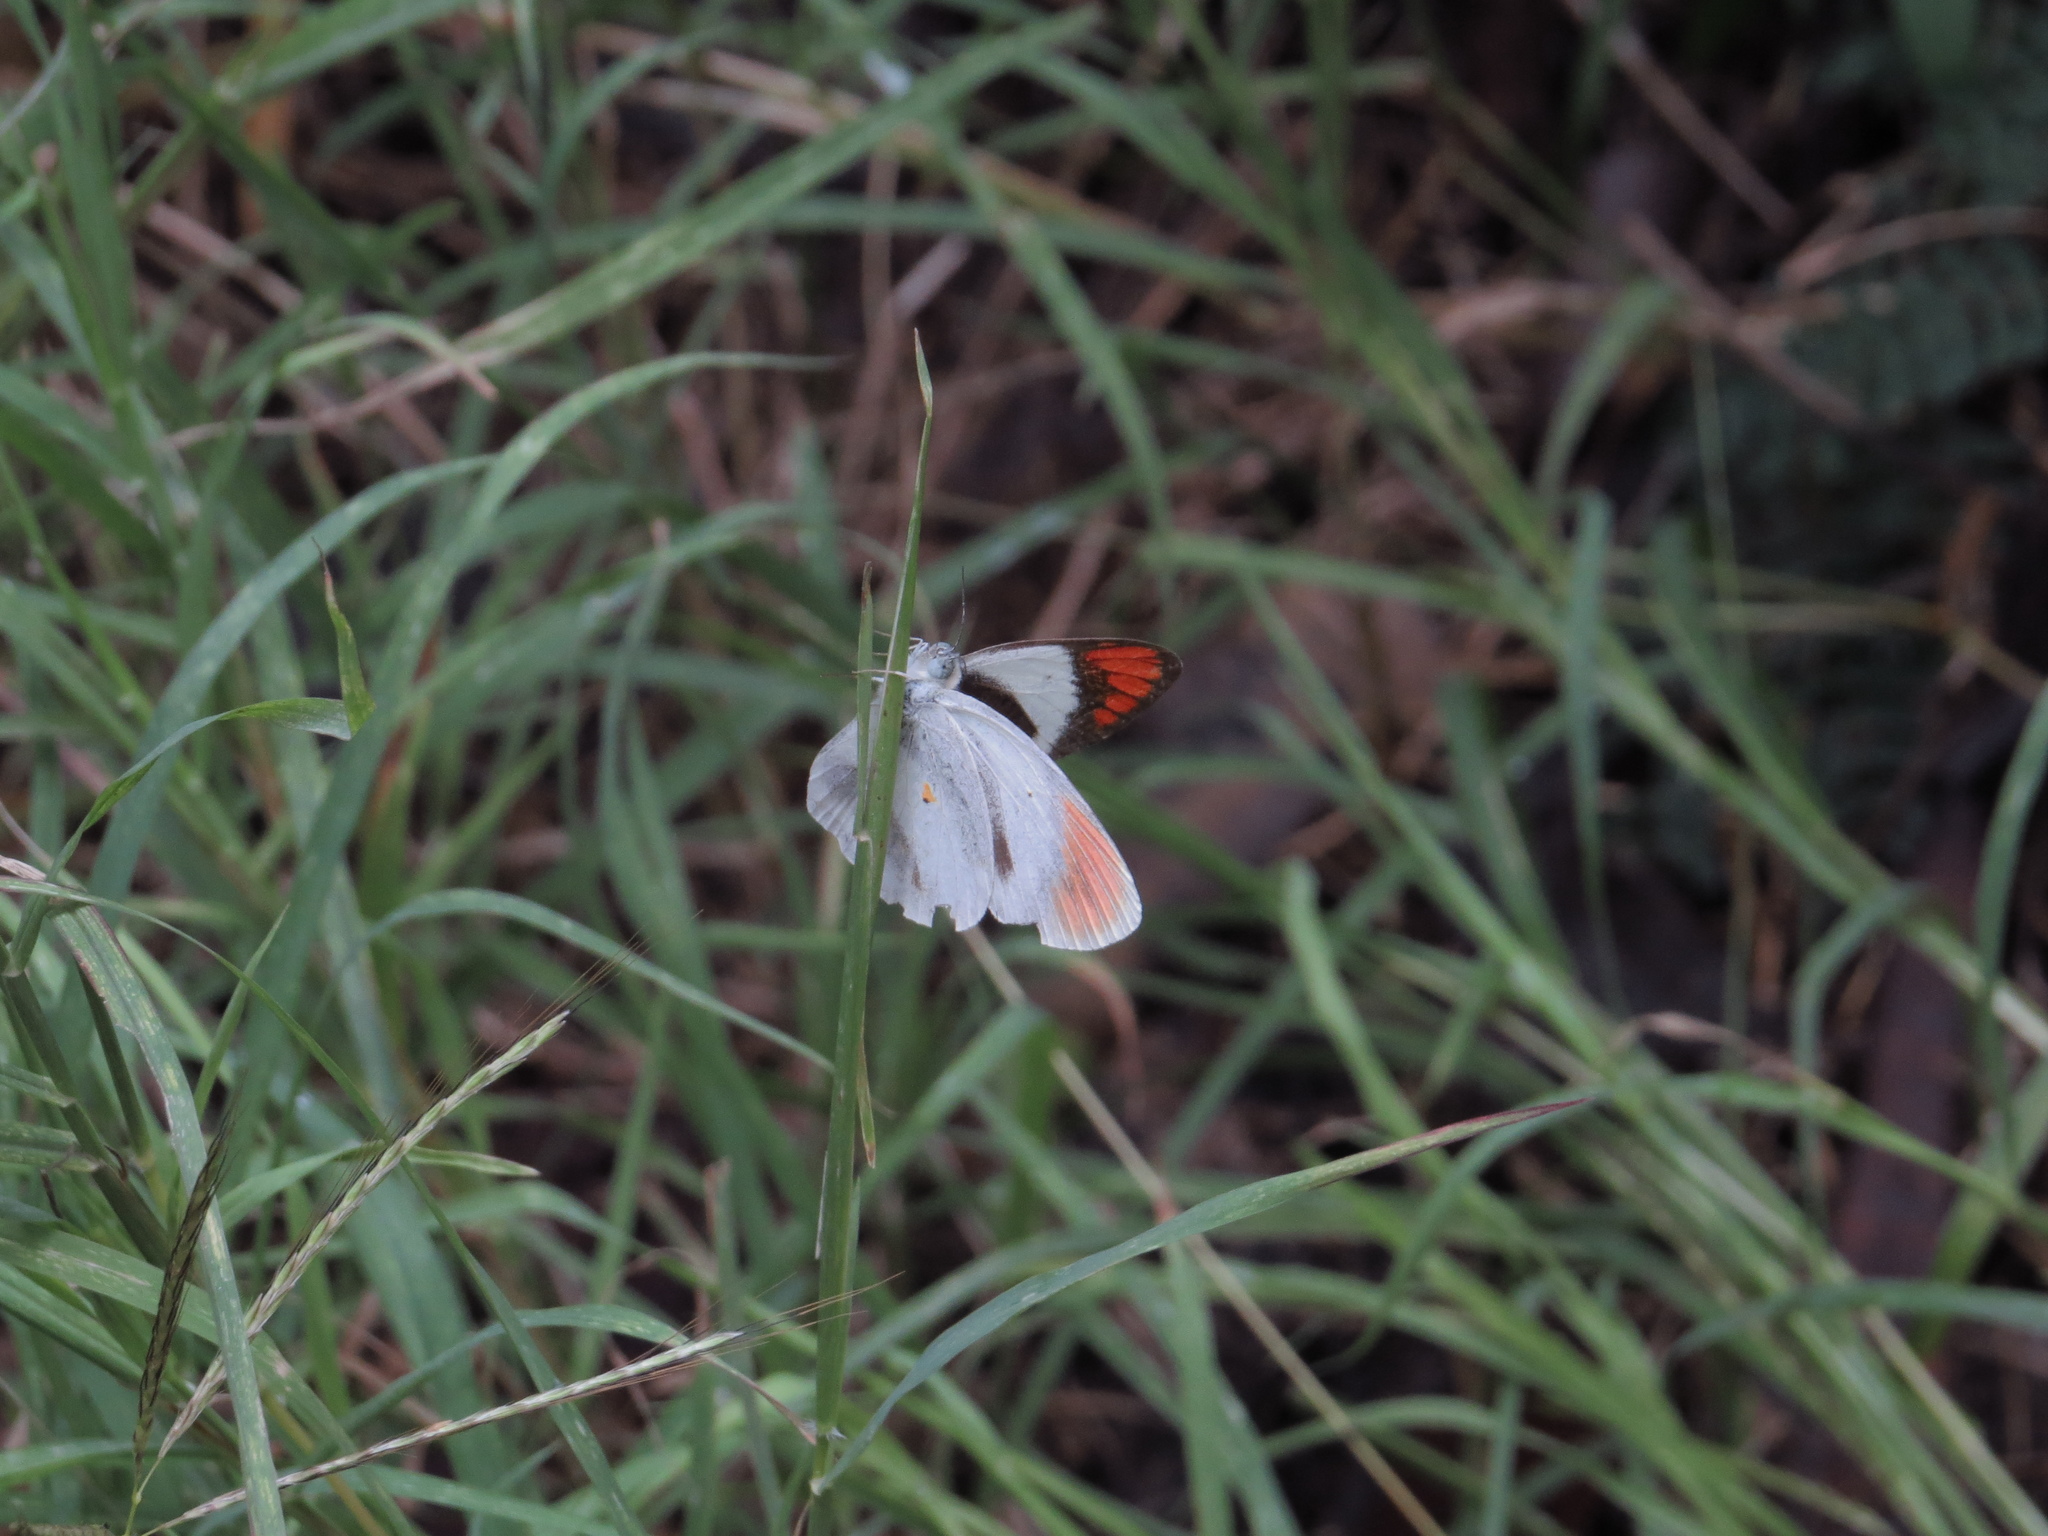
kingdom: Animalia
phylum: Arthropoda
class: Insecta
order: Lepidoptera
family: Pieridae
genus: Colotis
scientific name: Colotis euippe
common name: Round-winged orange tip
